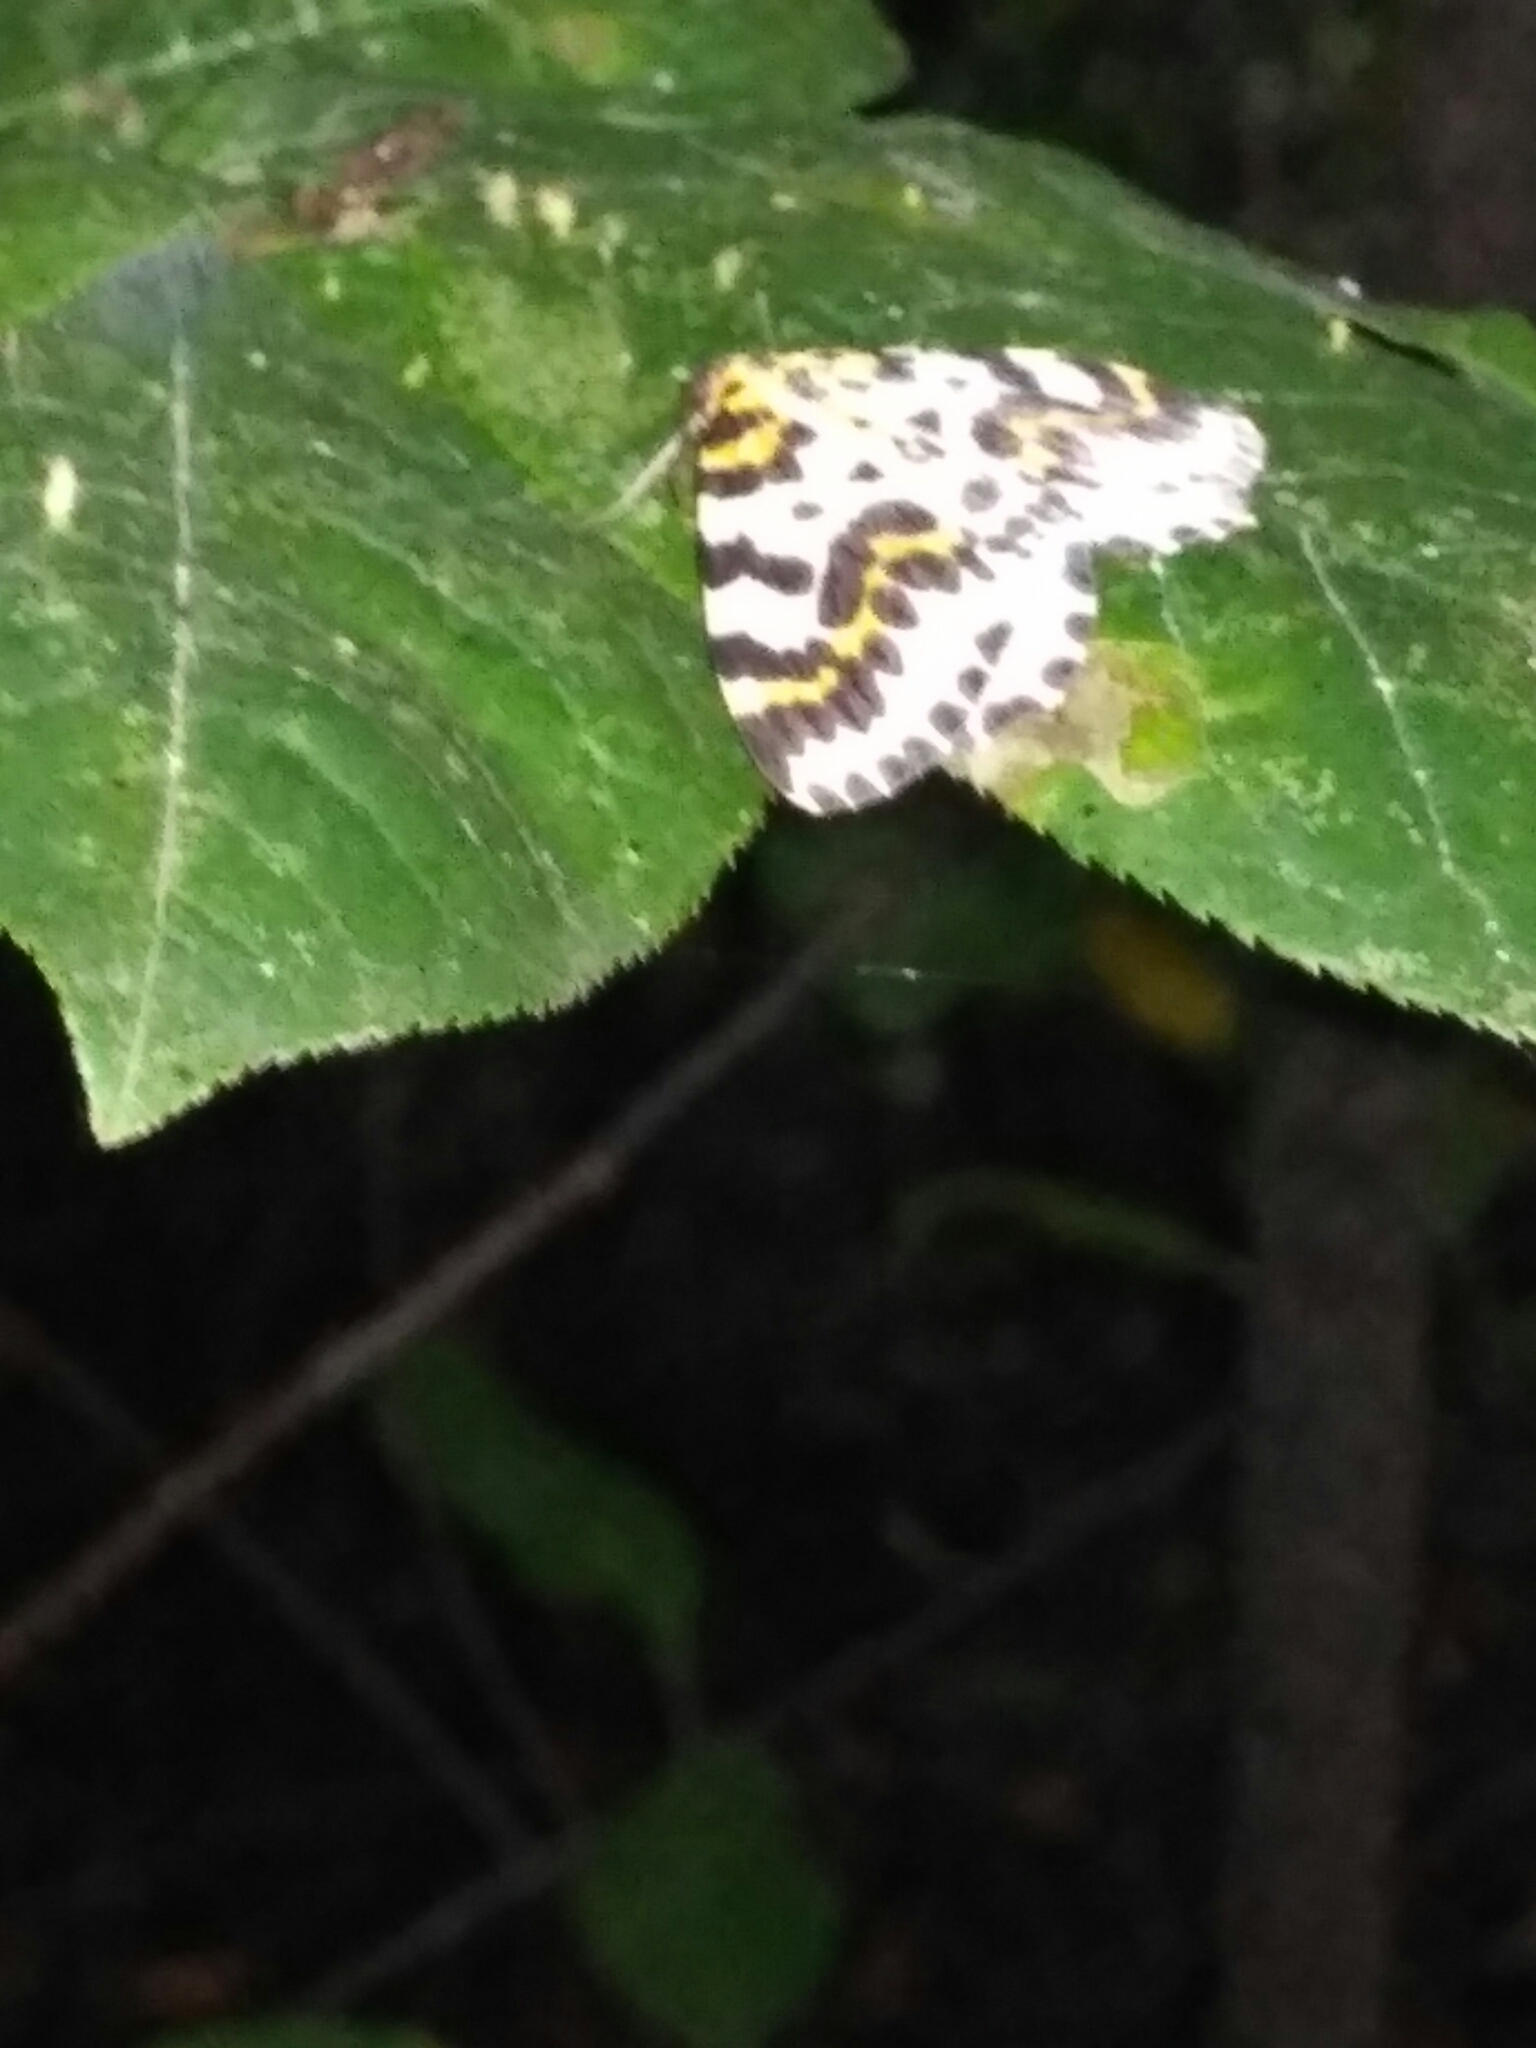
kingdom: Animalia
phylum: Arthropoda
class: Insecta
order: Lepidoptera
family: Geometridae
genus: Abraxas
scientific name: Abraxas grossulariata
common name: Magpie
